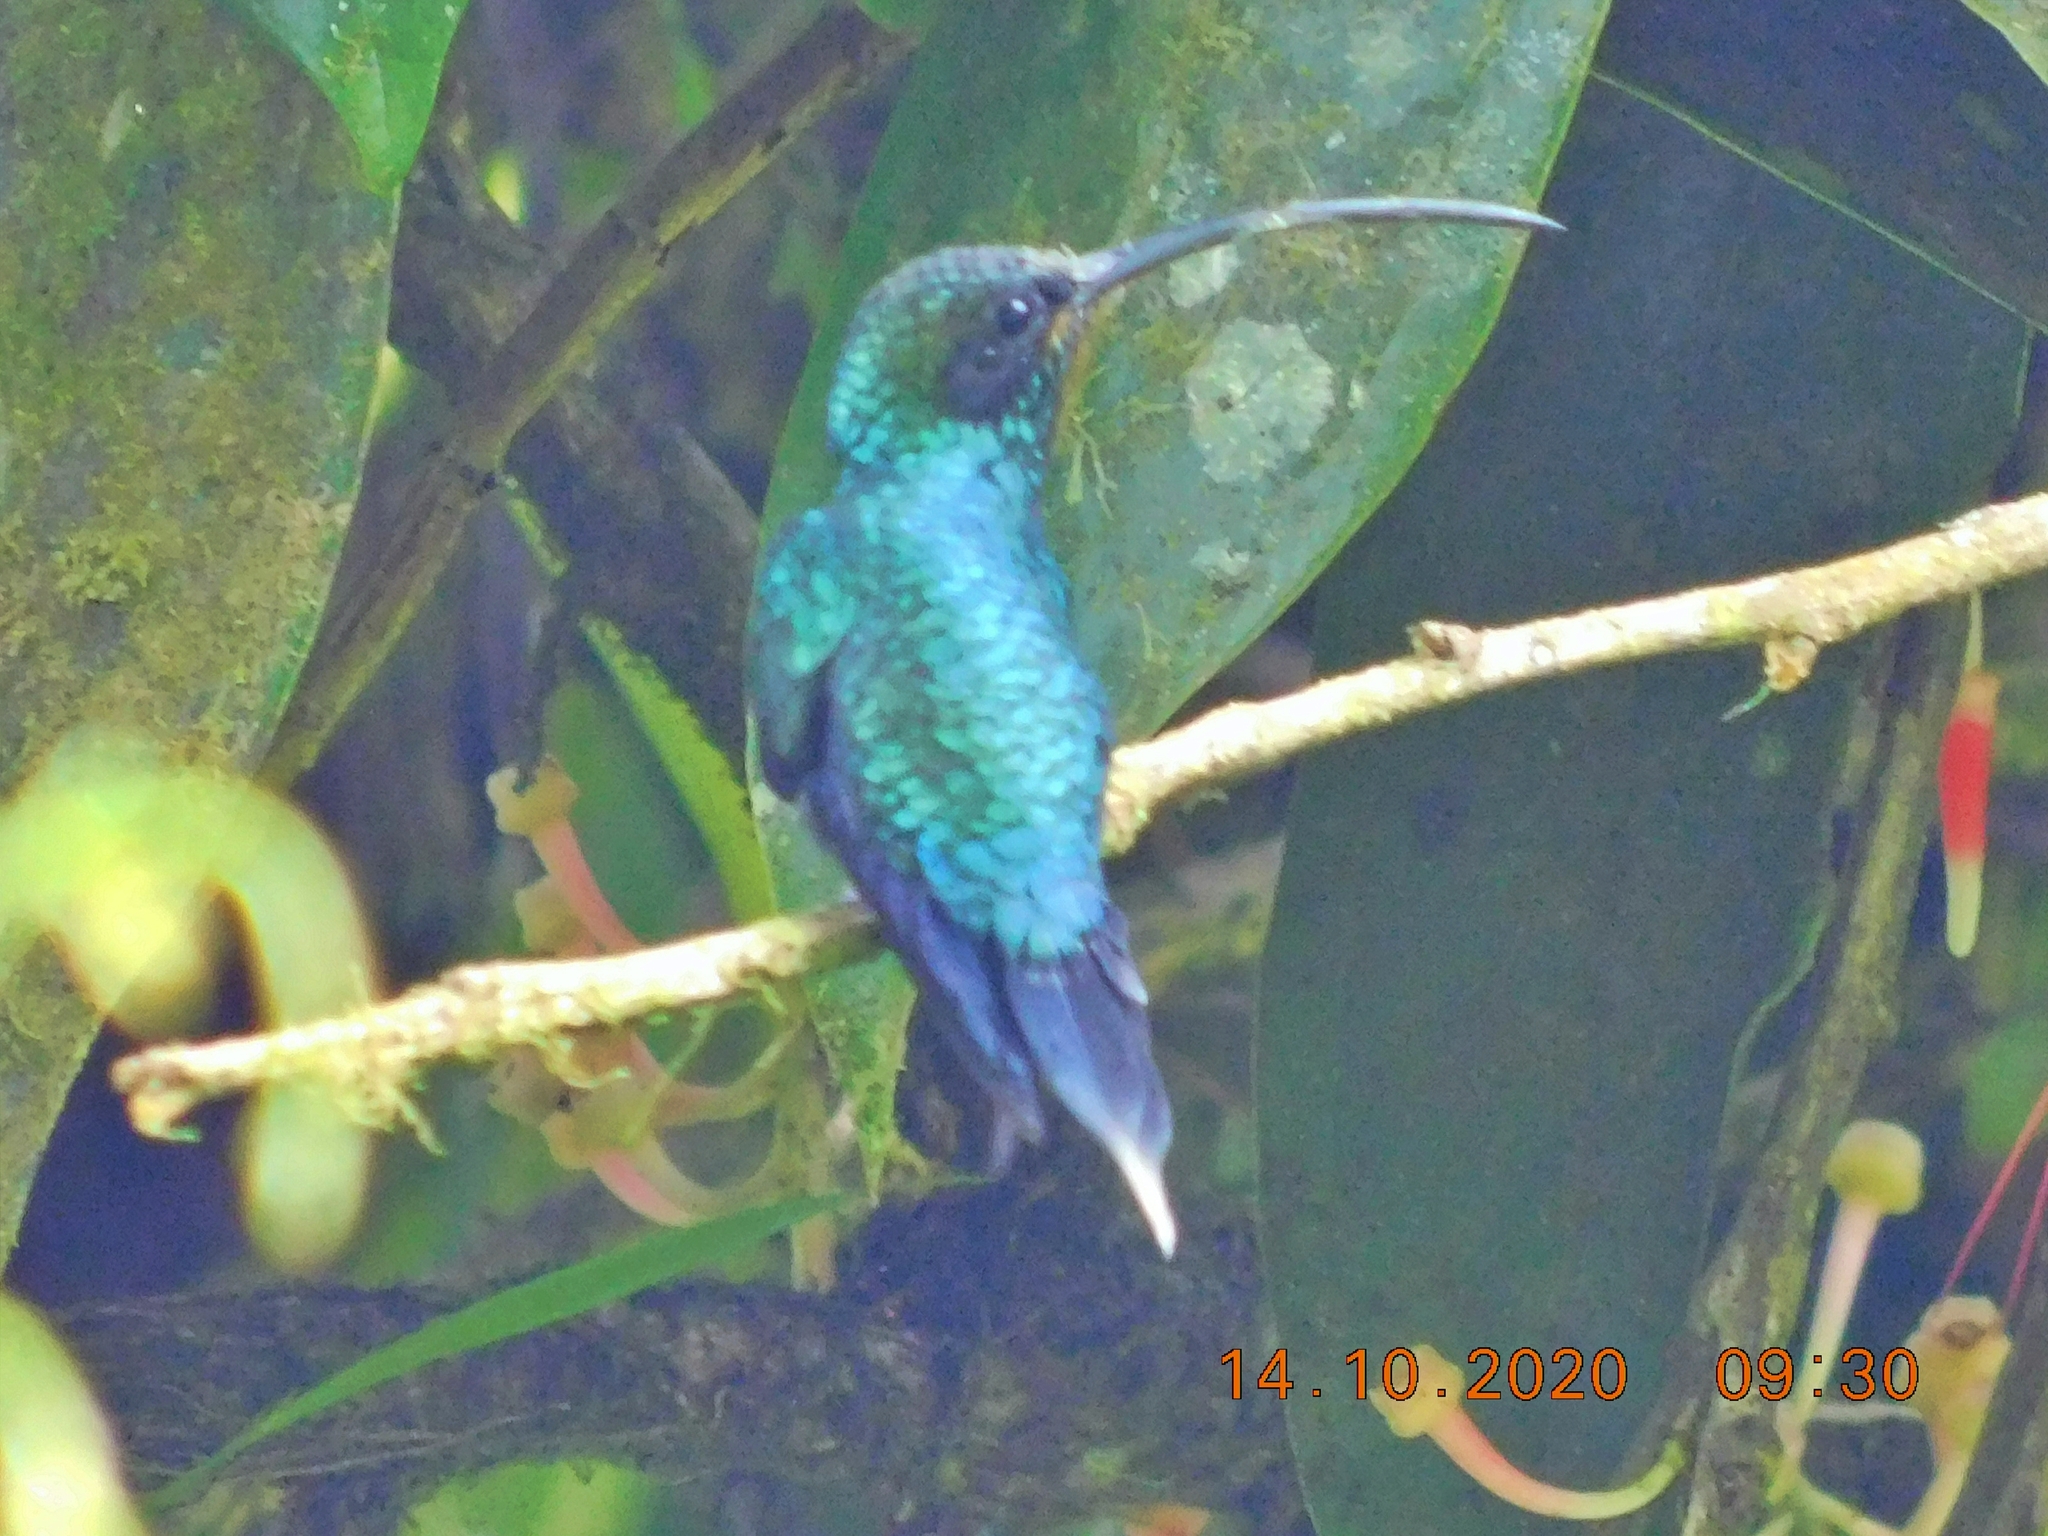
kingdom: Animalia
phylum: Chordata
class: Aves
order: Apodiformes
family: Trochilidae
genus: Phaethornis
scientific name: Phaethornis guy
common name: Green hermit
